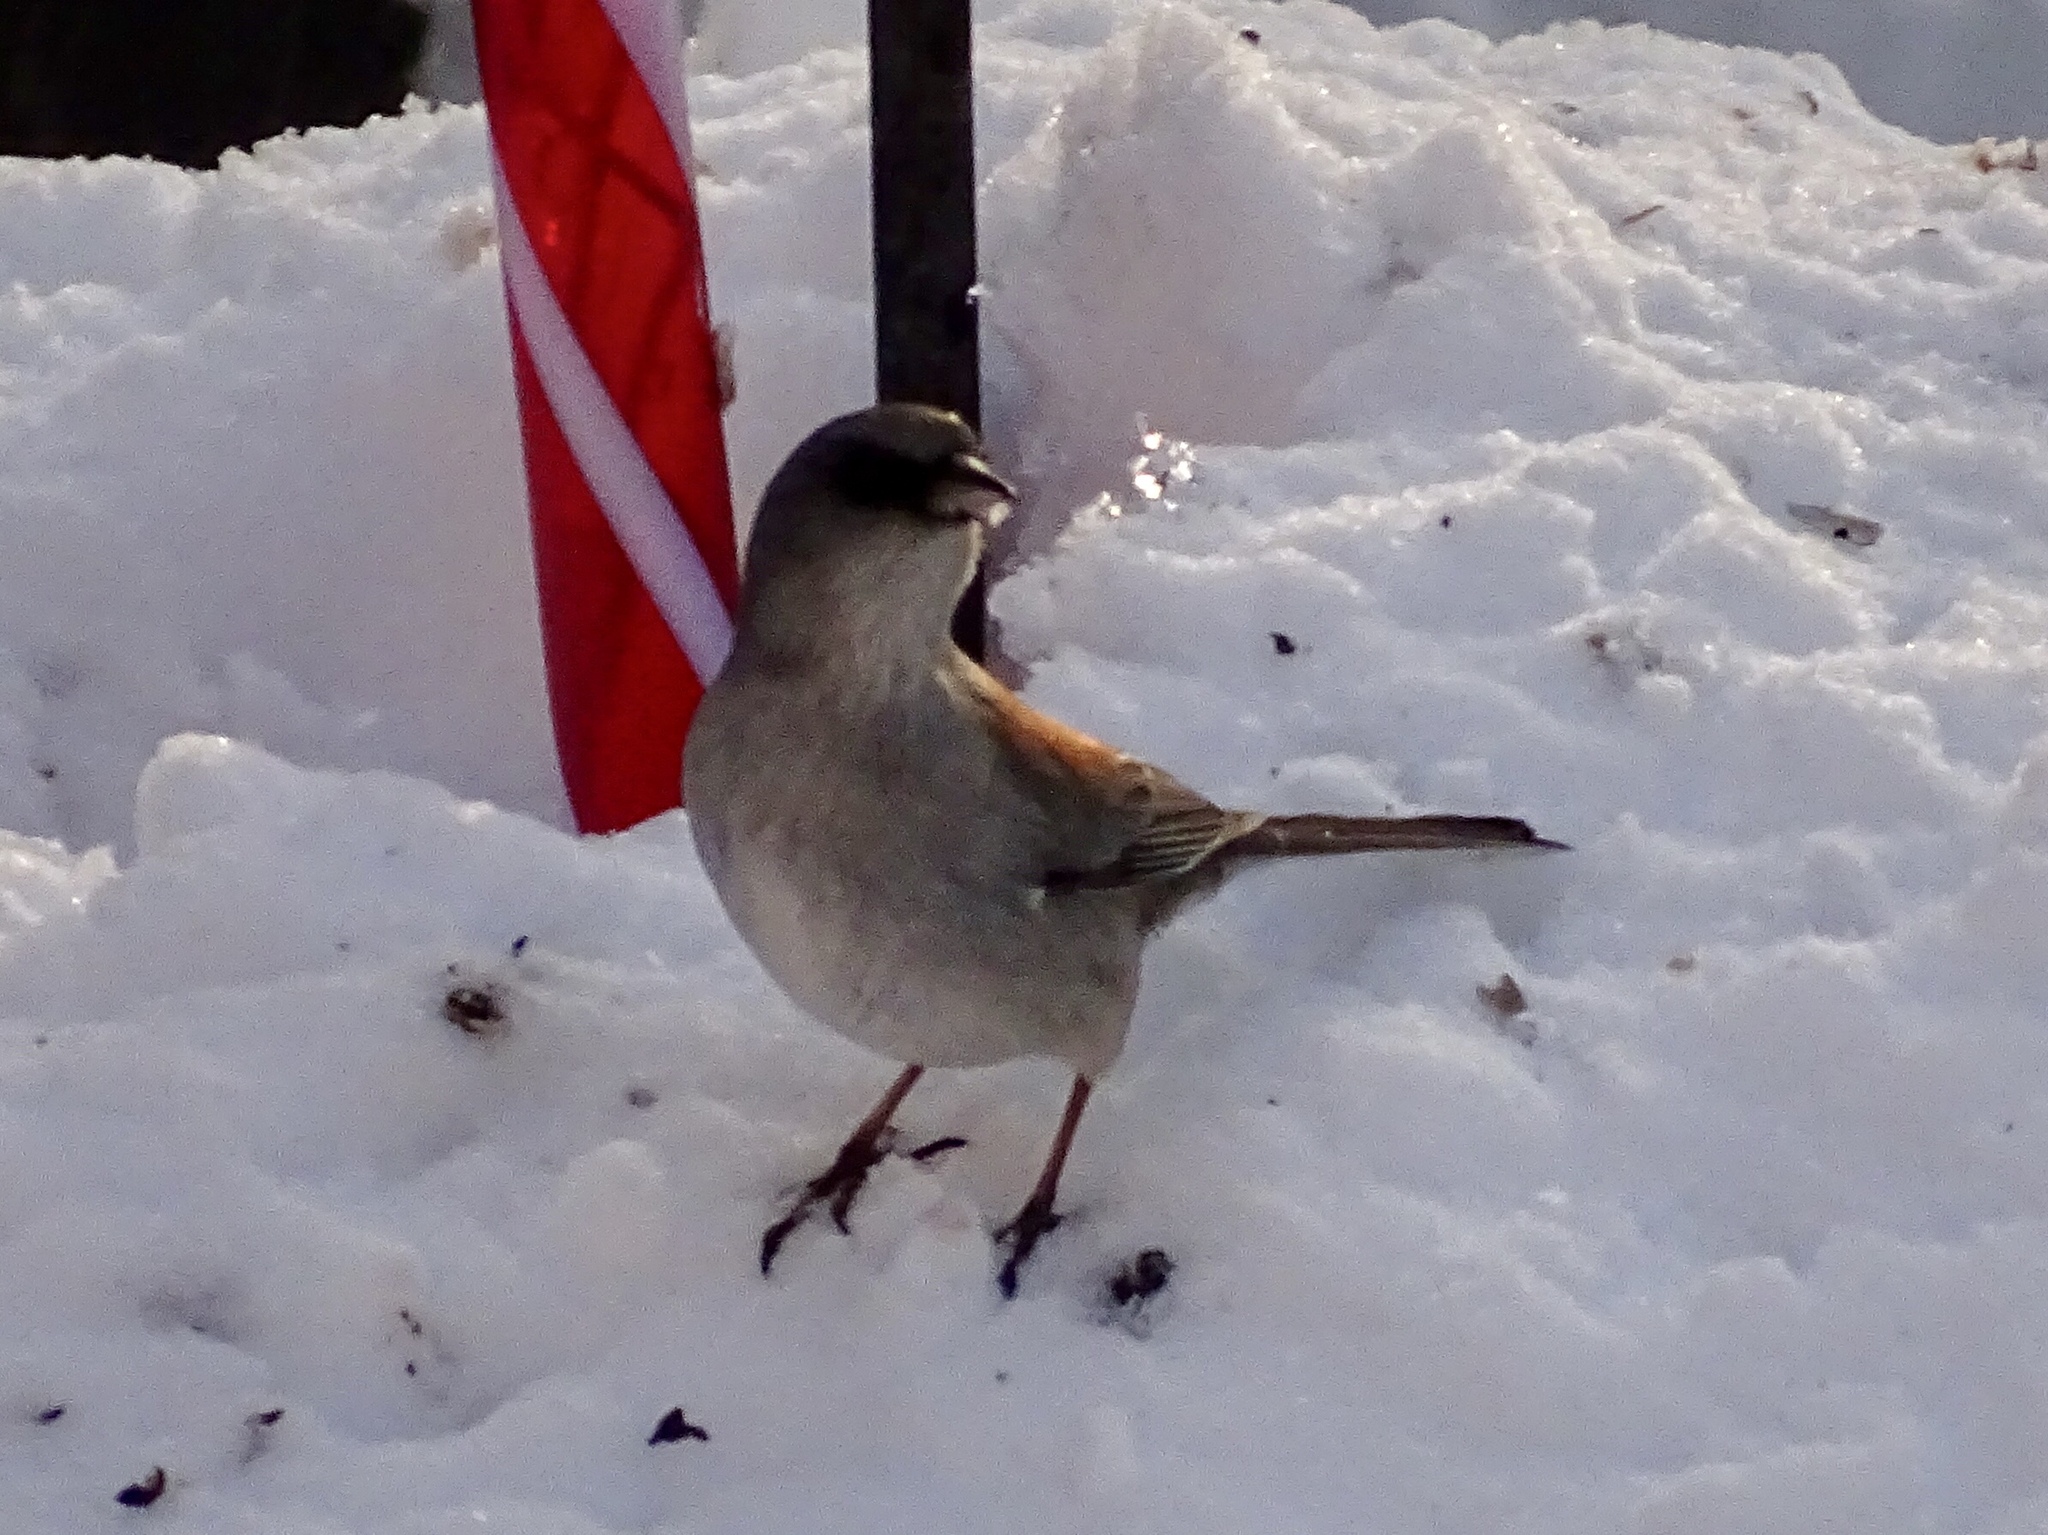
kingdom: Animalia
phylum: Chordata
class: Aves
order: Passeriformes
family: Passerellidae
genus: Junco
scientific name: Junco hyemalis
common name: Dark-eyed junco
